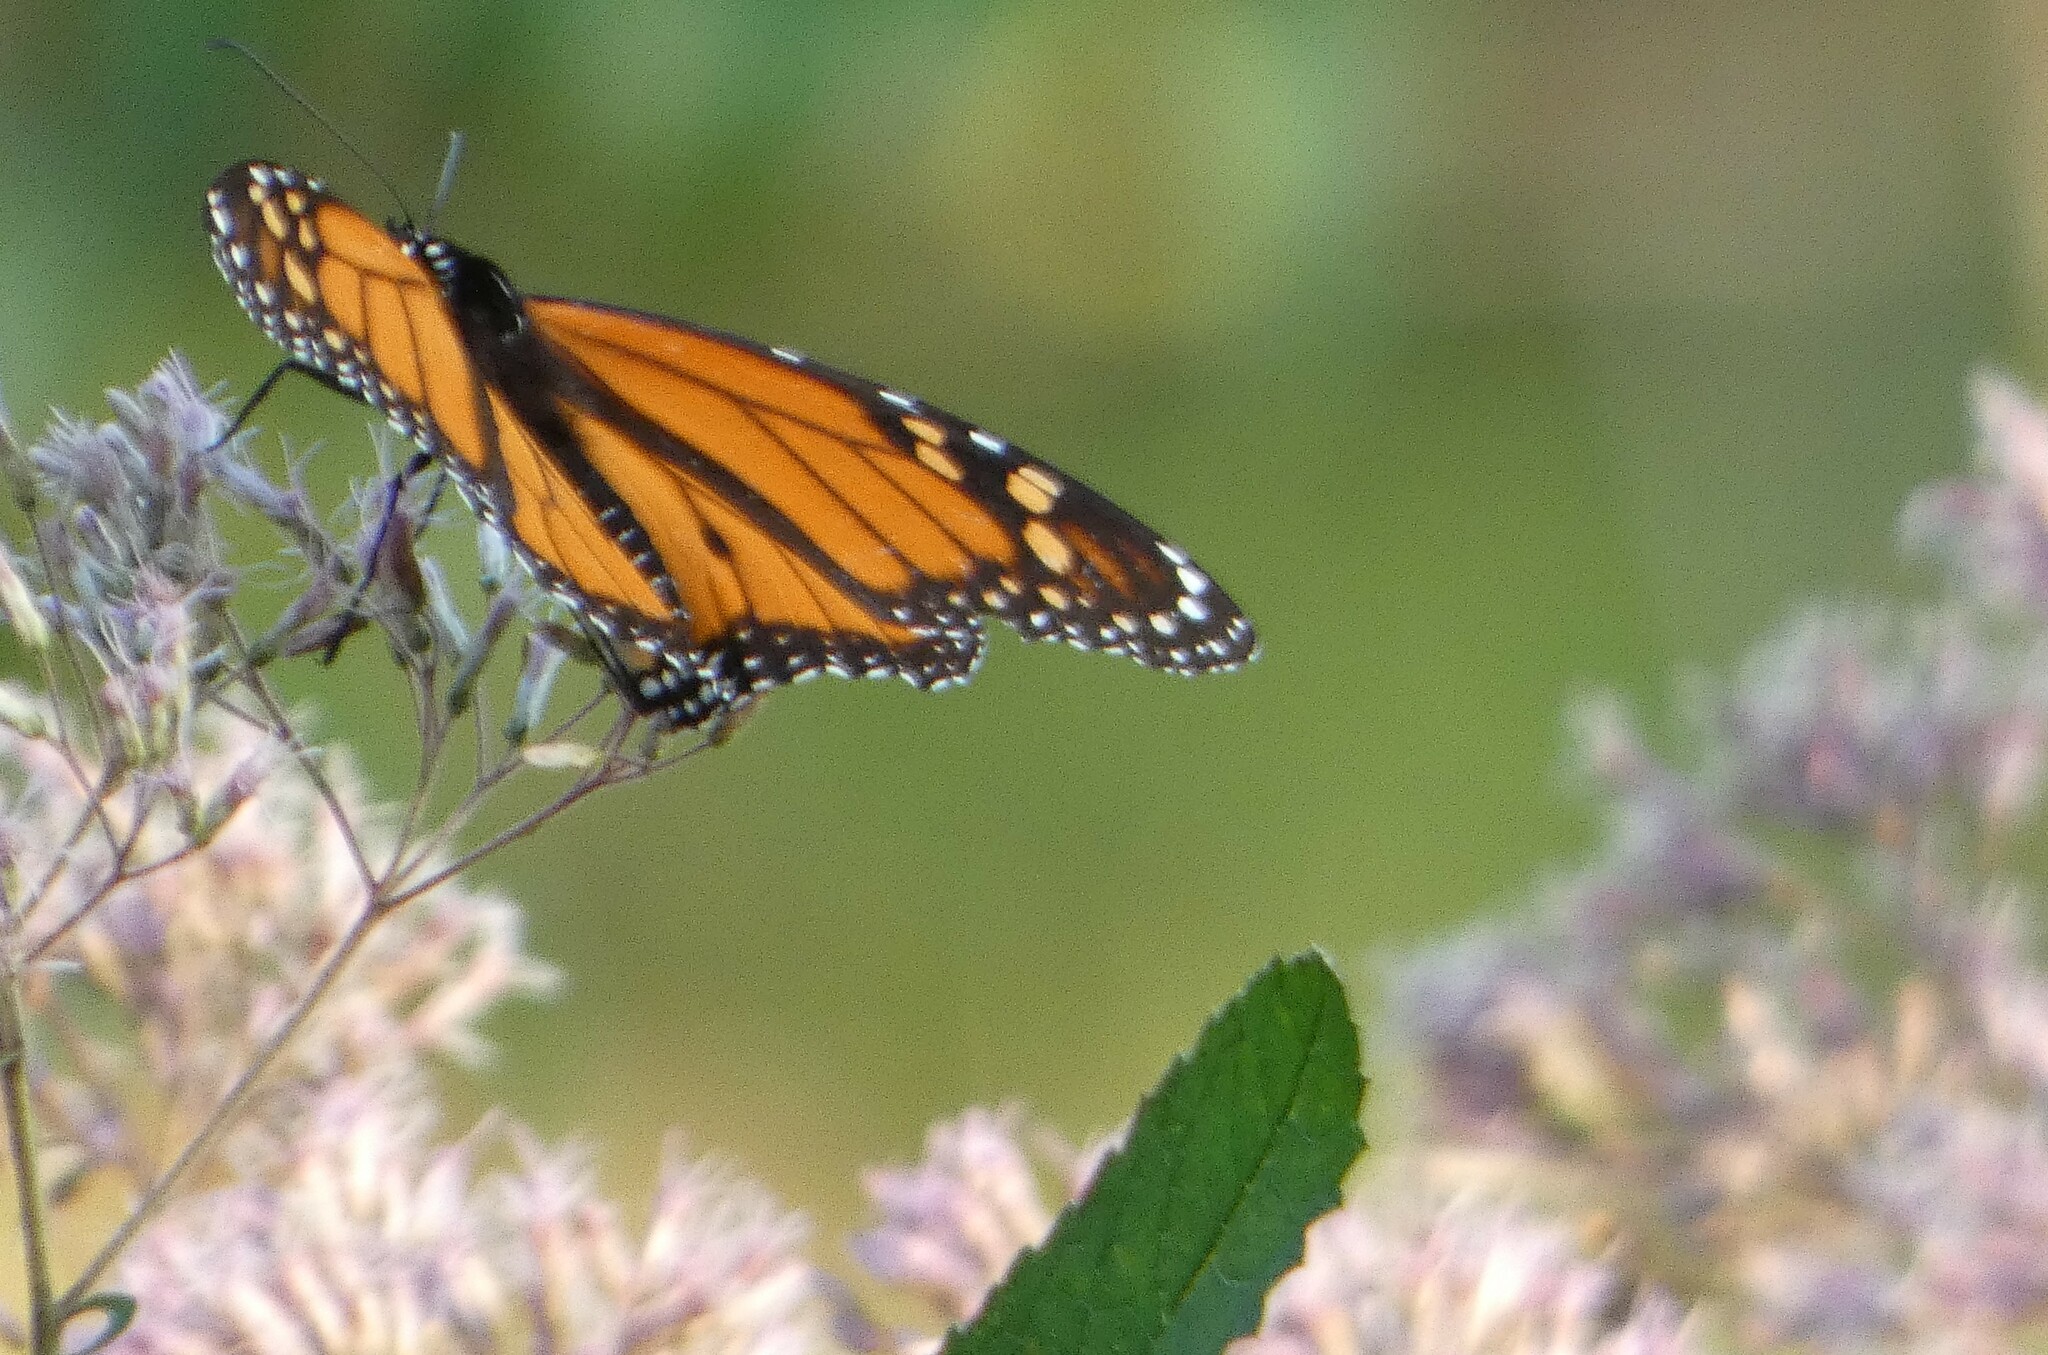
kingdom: Animalia
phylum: Arthropoda
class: Insecta
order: Lepidoptera
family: Nymphalidae
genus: Danaus
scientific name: Danaus plexippus
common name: Monarch
